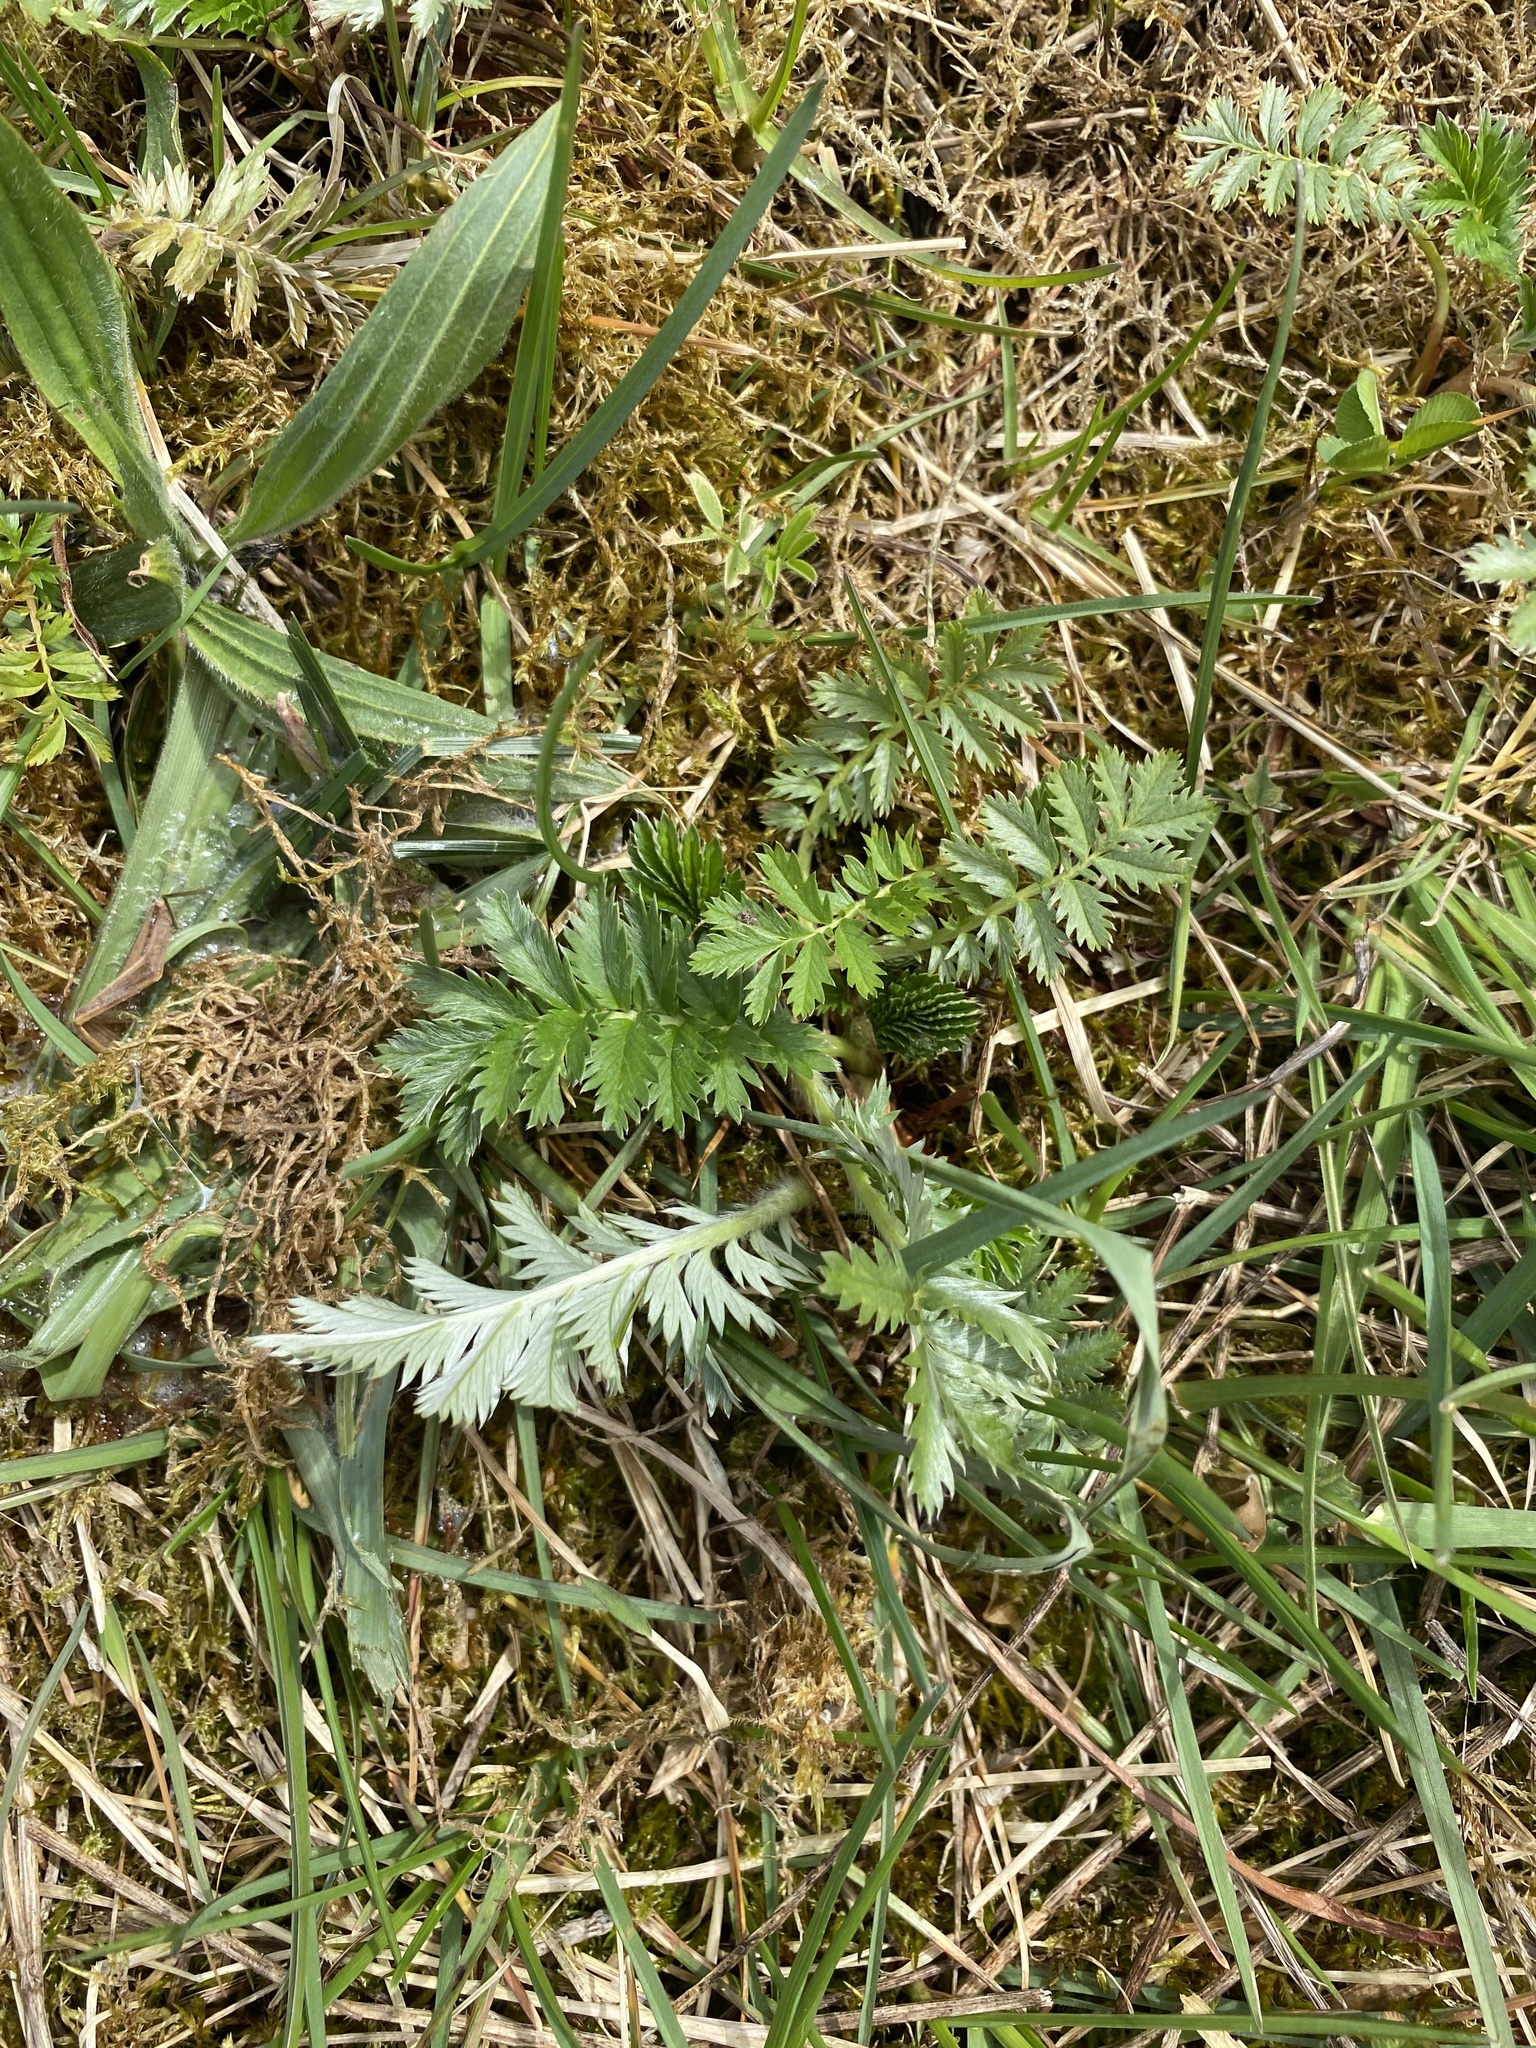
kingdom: Plantae
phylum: Tracheophyta
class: Magnoliopsida
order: Rosales
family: Rosaceae
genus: Argentina
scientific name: Argentina anserina
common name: Common silverweed
